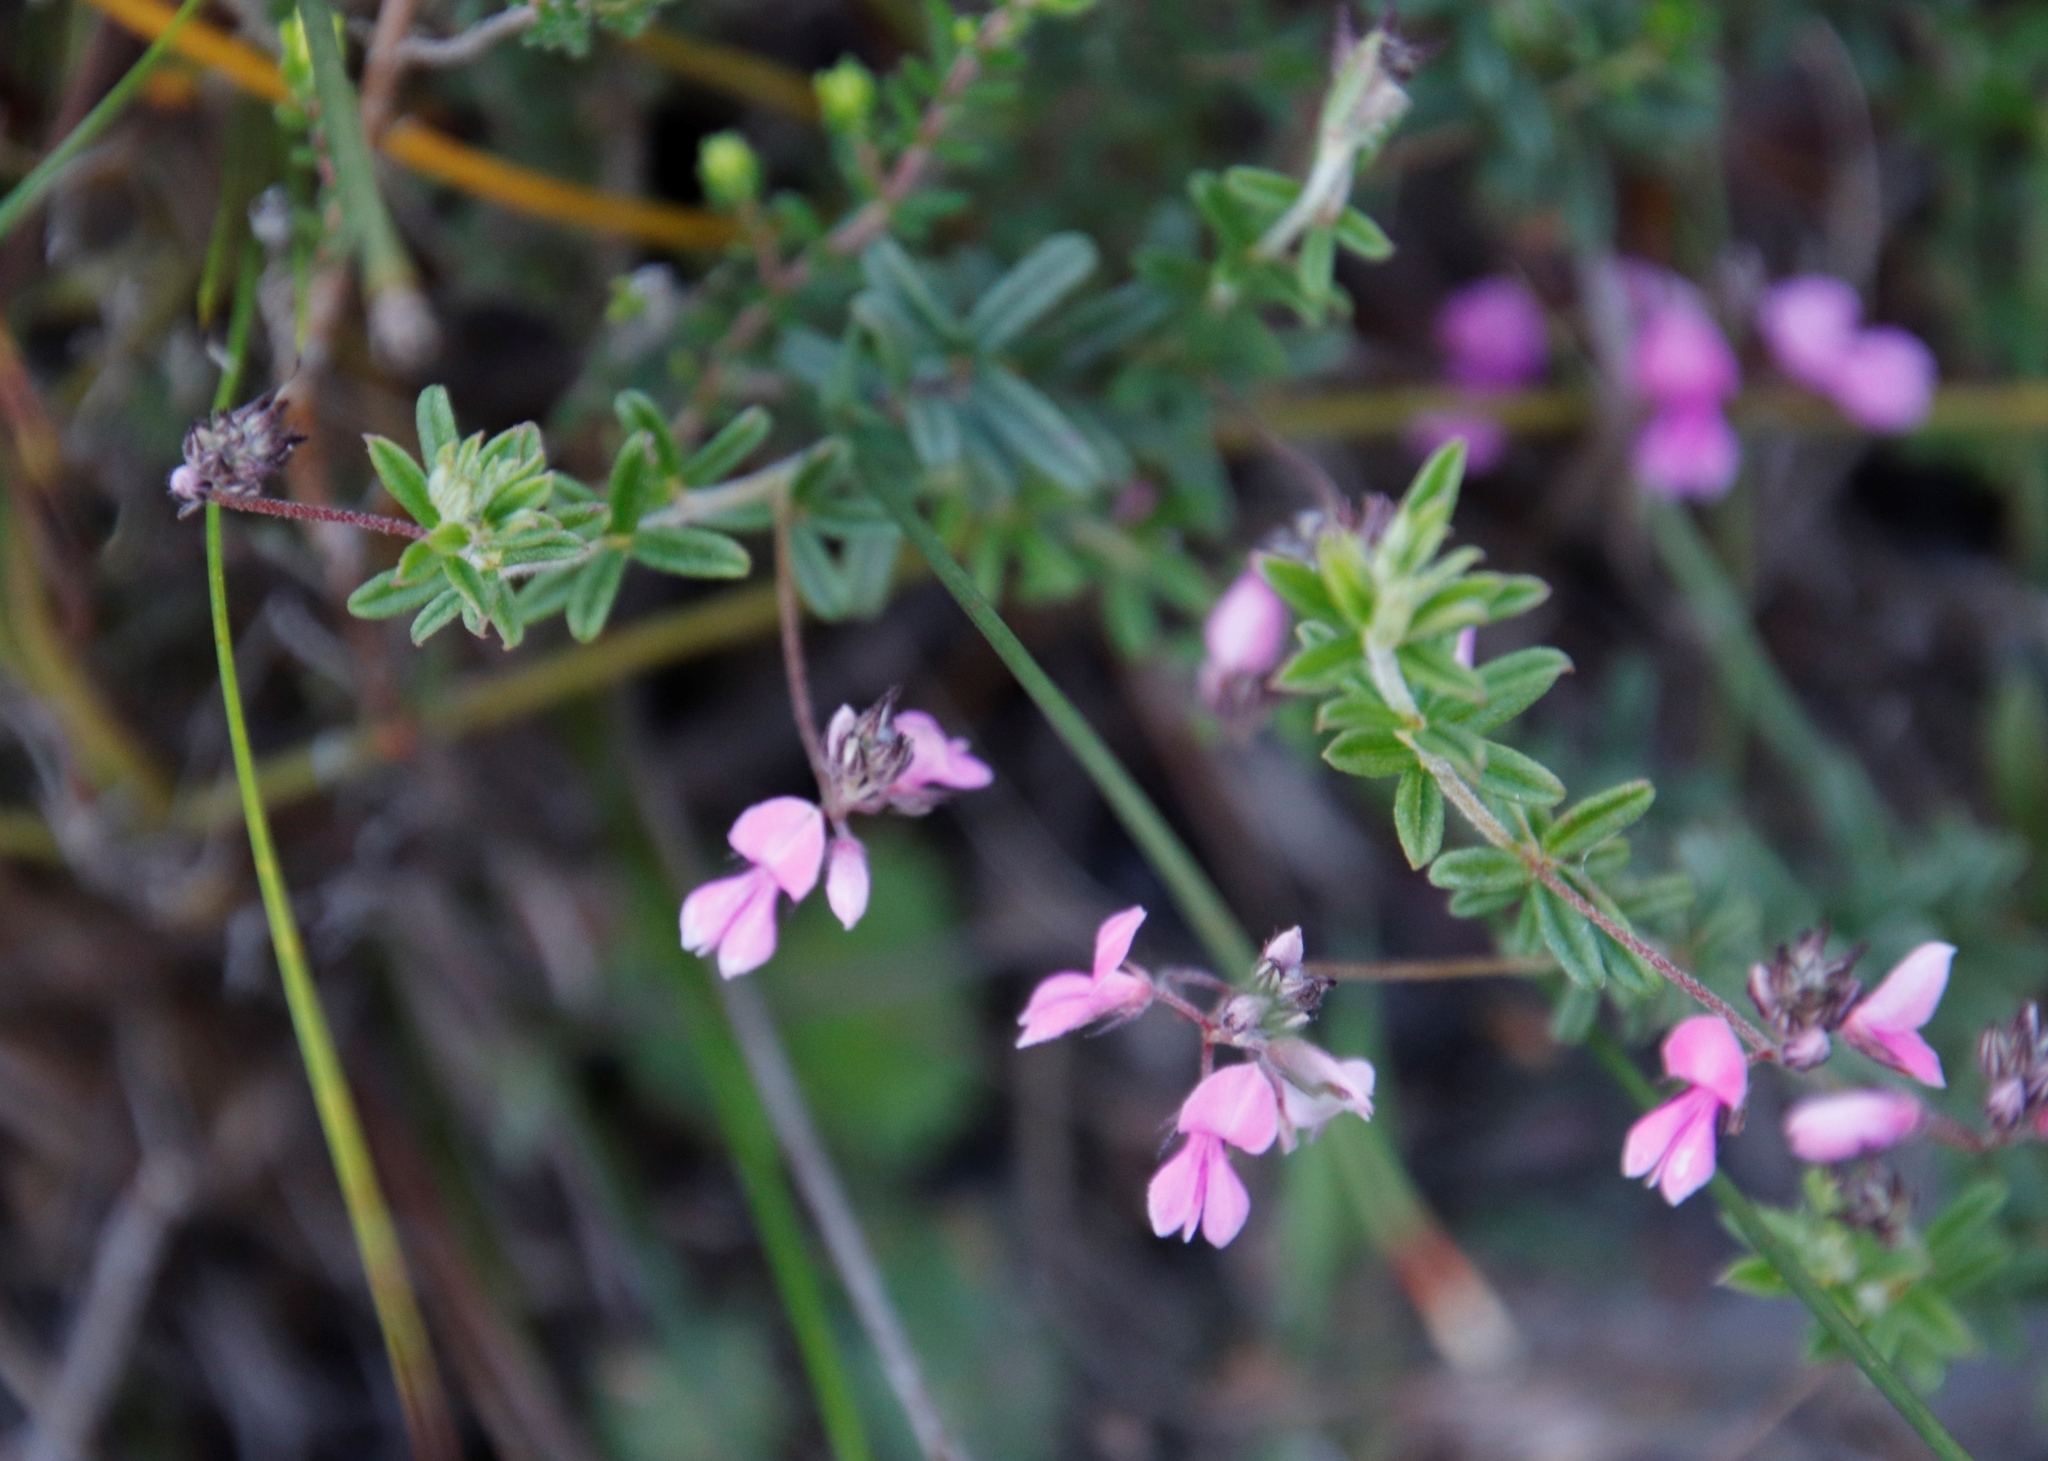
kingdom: Plantae
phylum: Tracheophyta
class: Magnoliopsida
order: Fabales
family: Fabaceae
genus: Indigofera
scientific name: Indigofera filiformis
